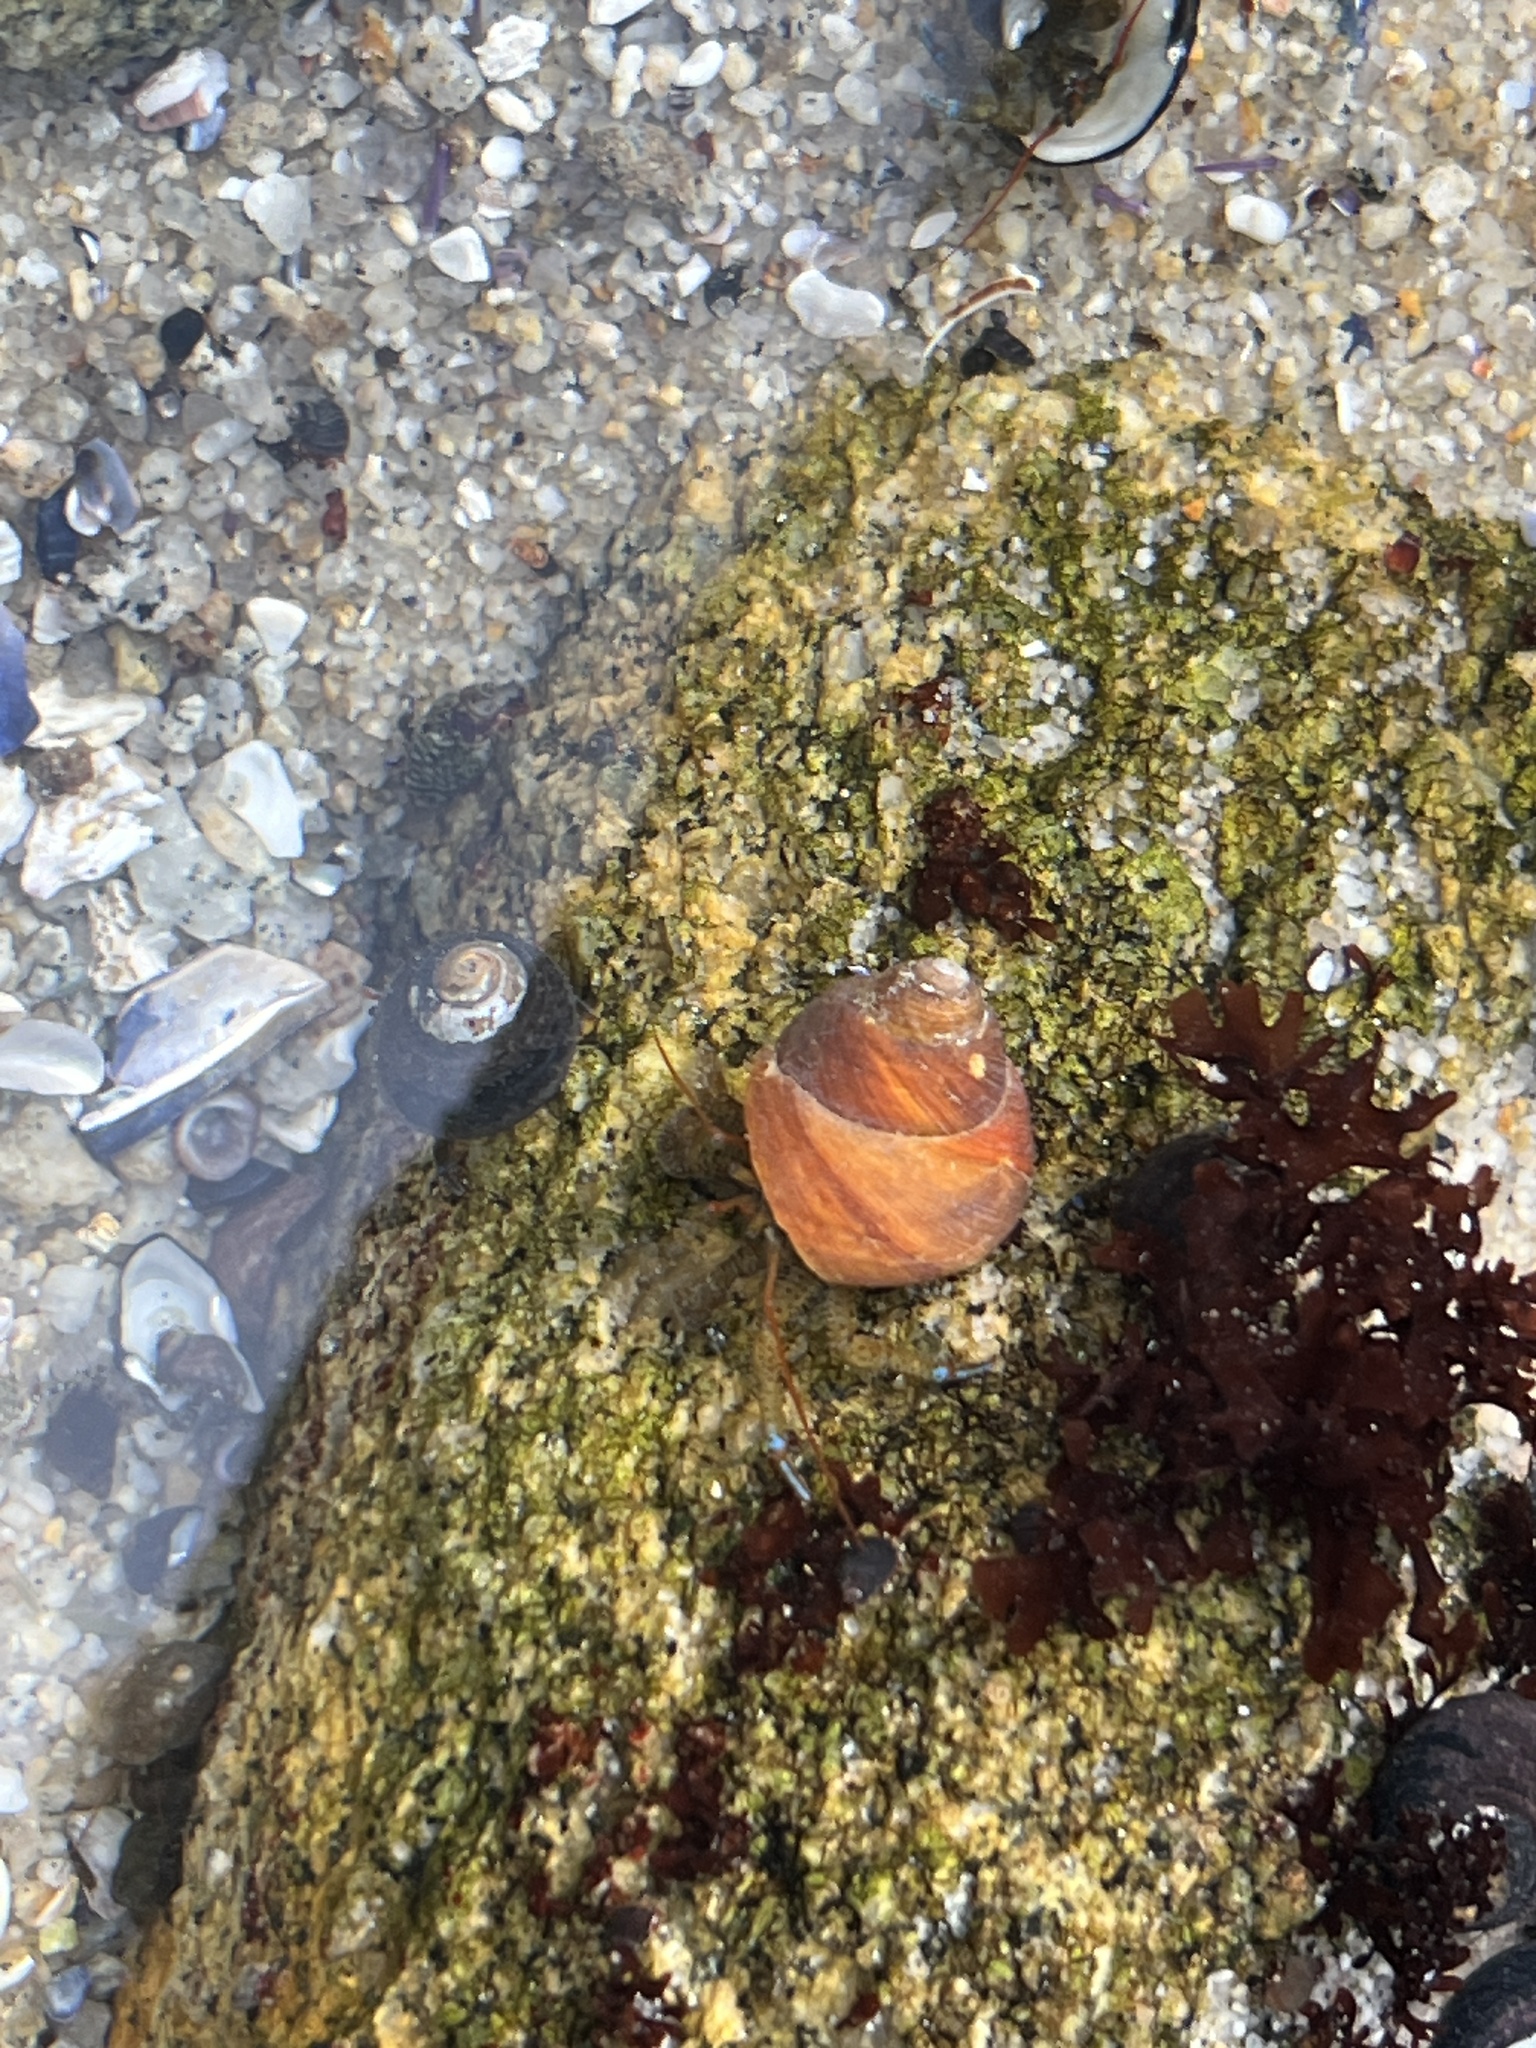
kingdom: Animalia
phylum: Arthropoda
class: Malacostraca
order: Decapoda
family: Paguridae
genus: Pagurus
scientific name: Pagurus samuelis
